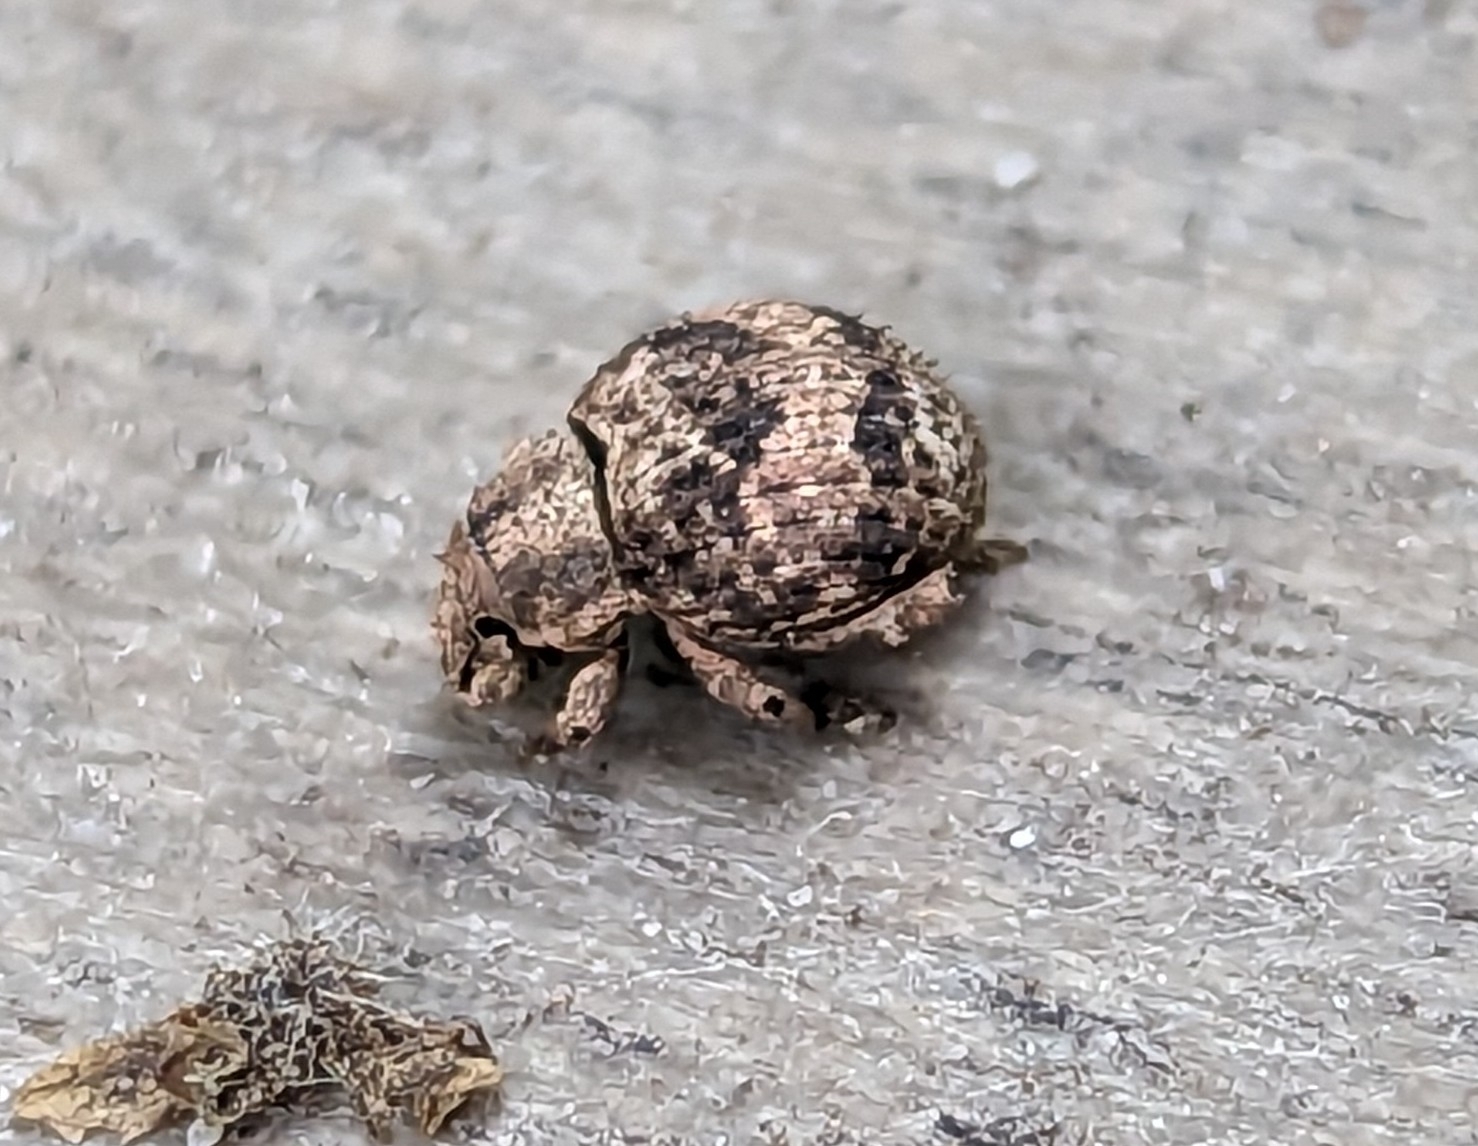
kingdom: Animalia
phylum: Arthropoda
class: Insecta
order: Coleoptera
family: Curculionidae
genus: Pseudocneorhinus
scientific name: Pseudocneorhinus bifasciatus
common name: Two-banded japanese weevil
